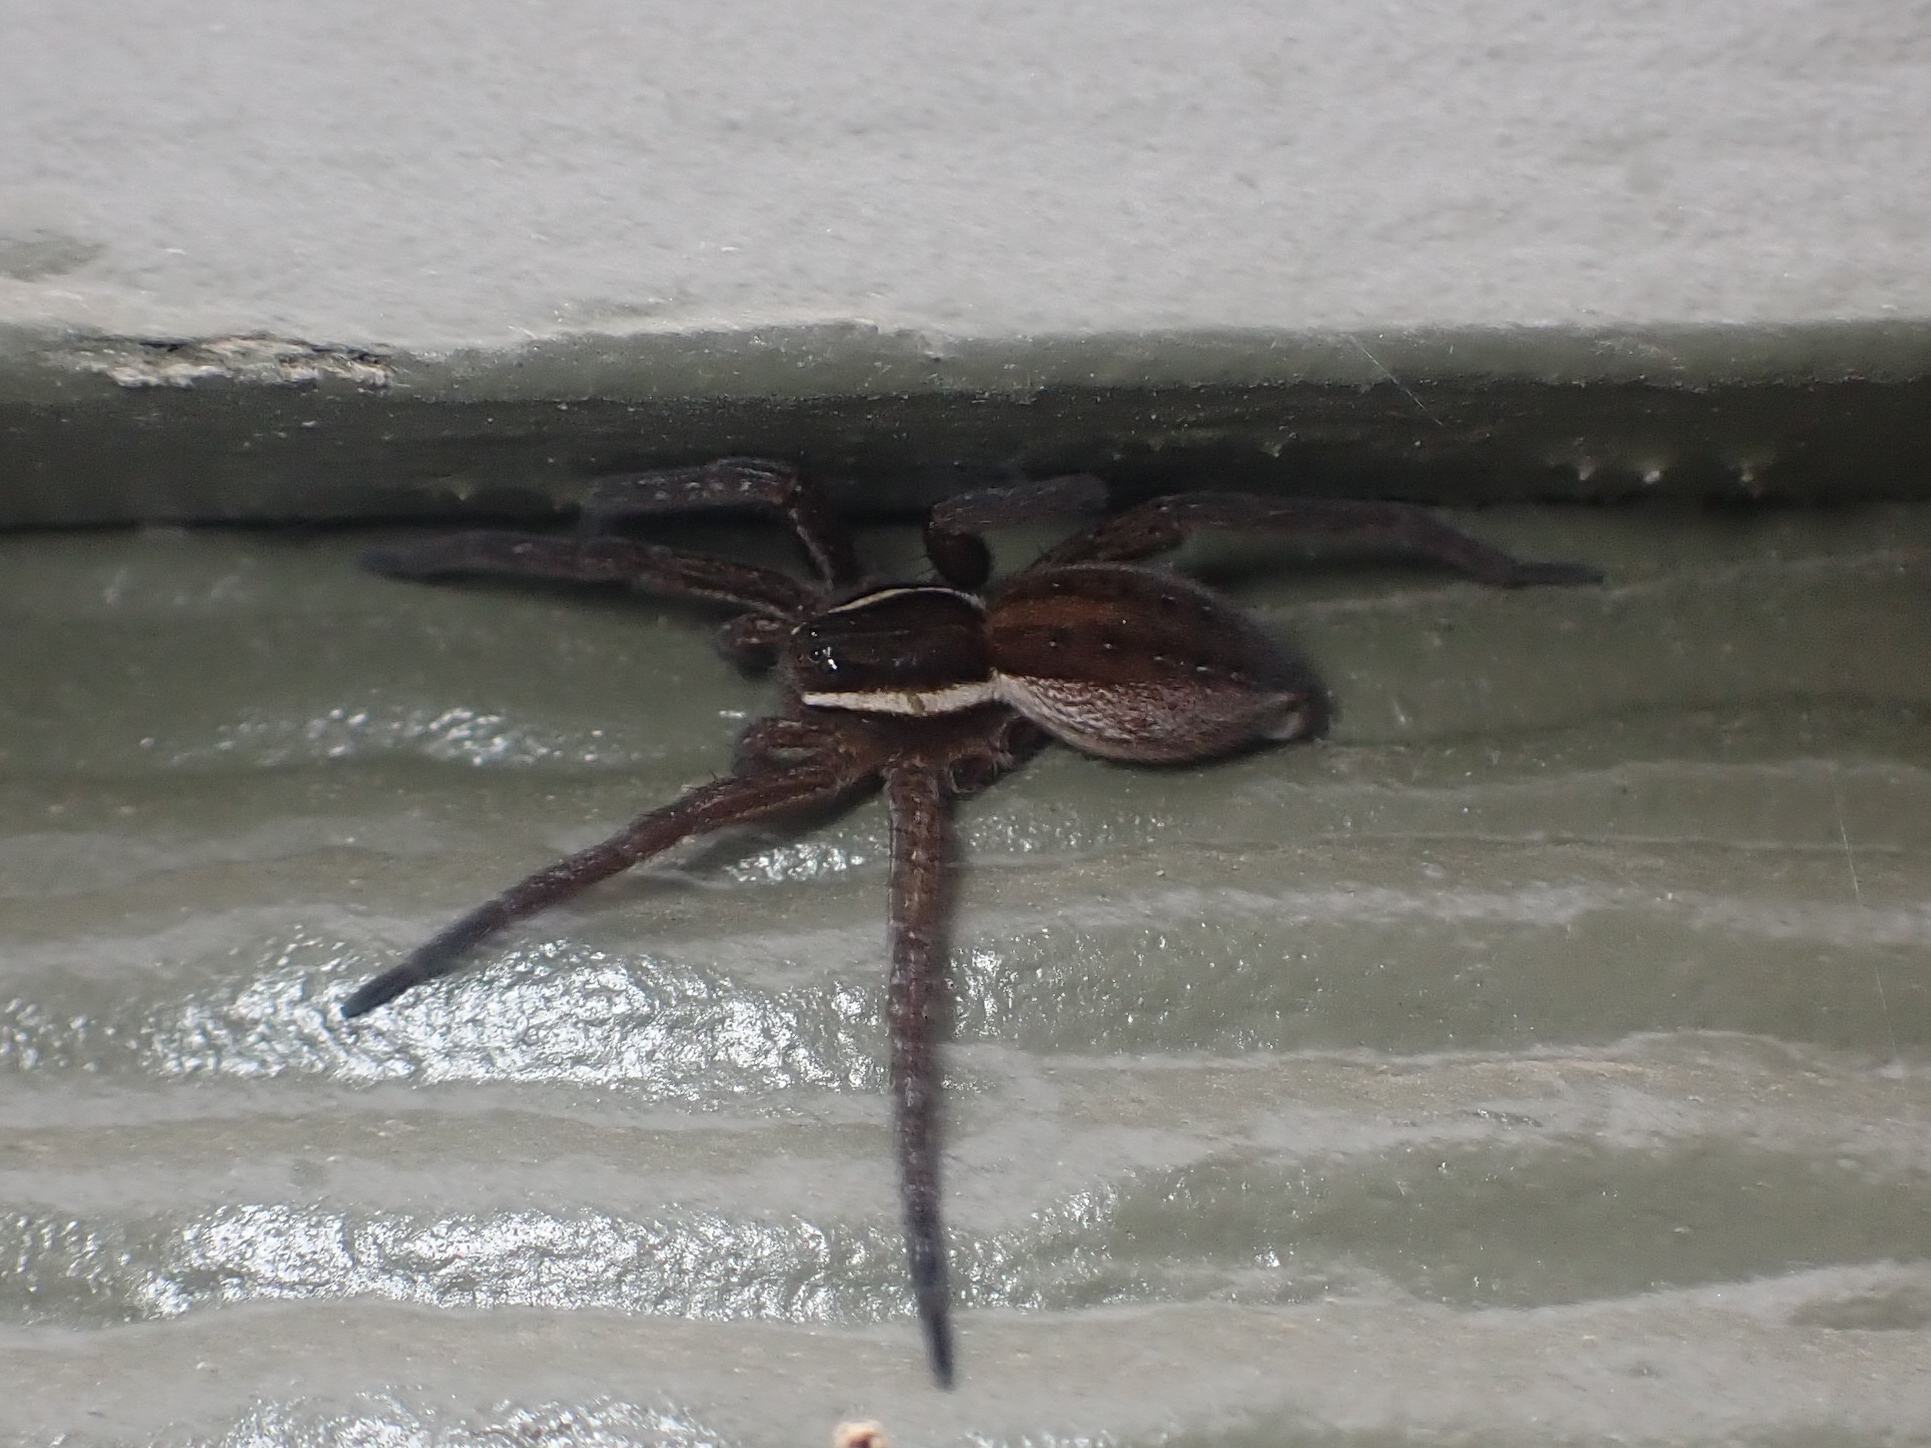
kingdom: Animalia
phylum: Arthropoda
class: Arachnida
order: Araneae
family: Pisauridae
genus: Dolomedes
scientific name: Dolomedes triton
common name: Six-spotted fishing spider
